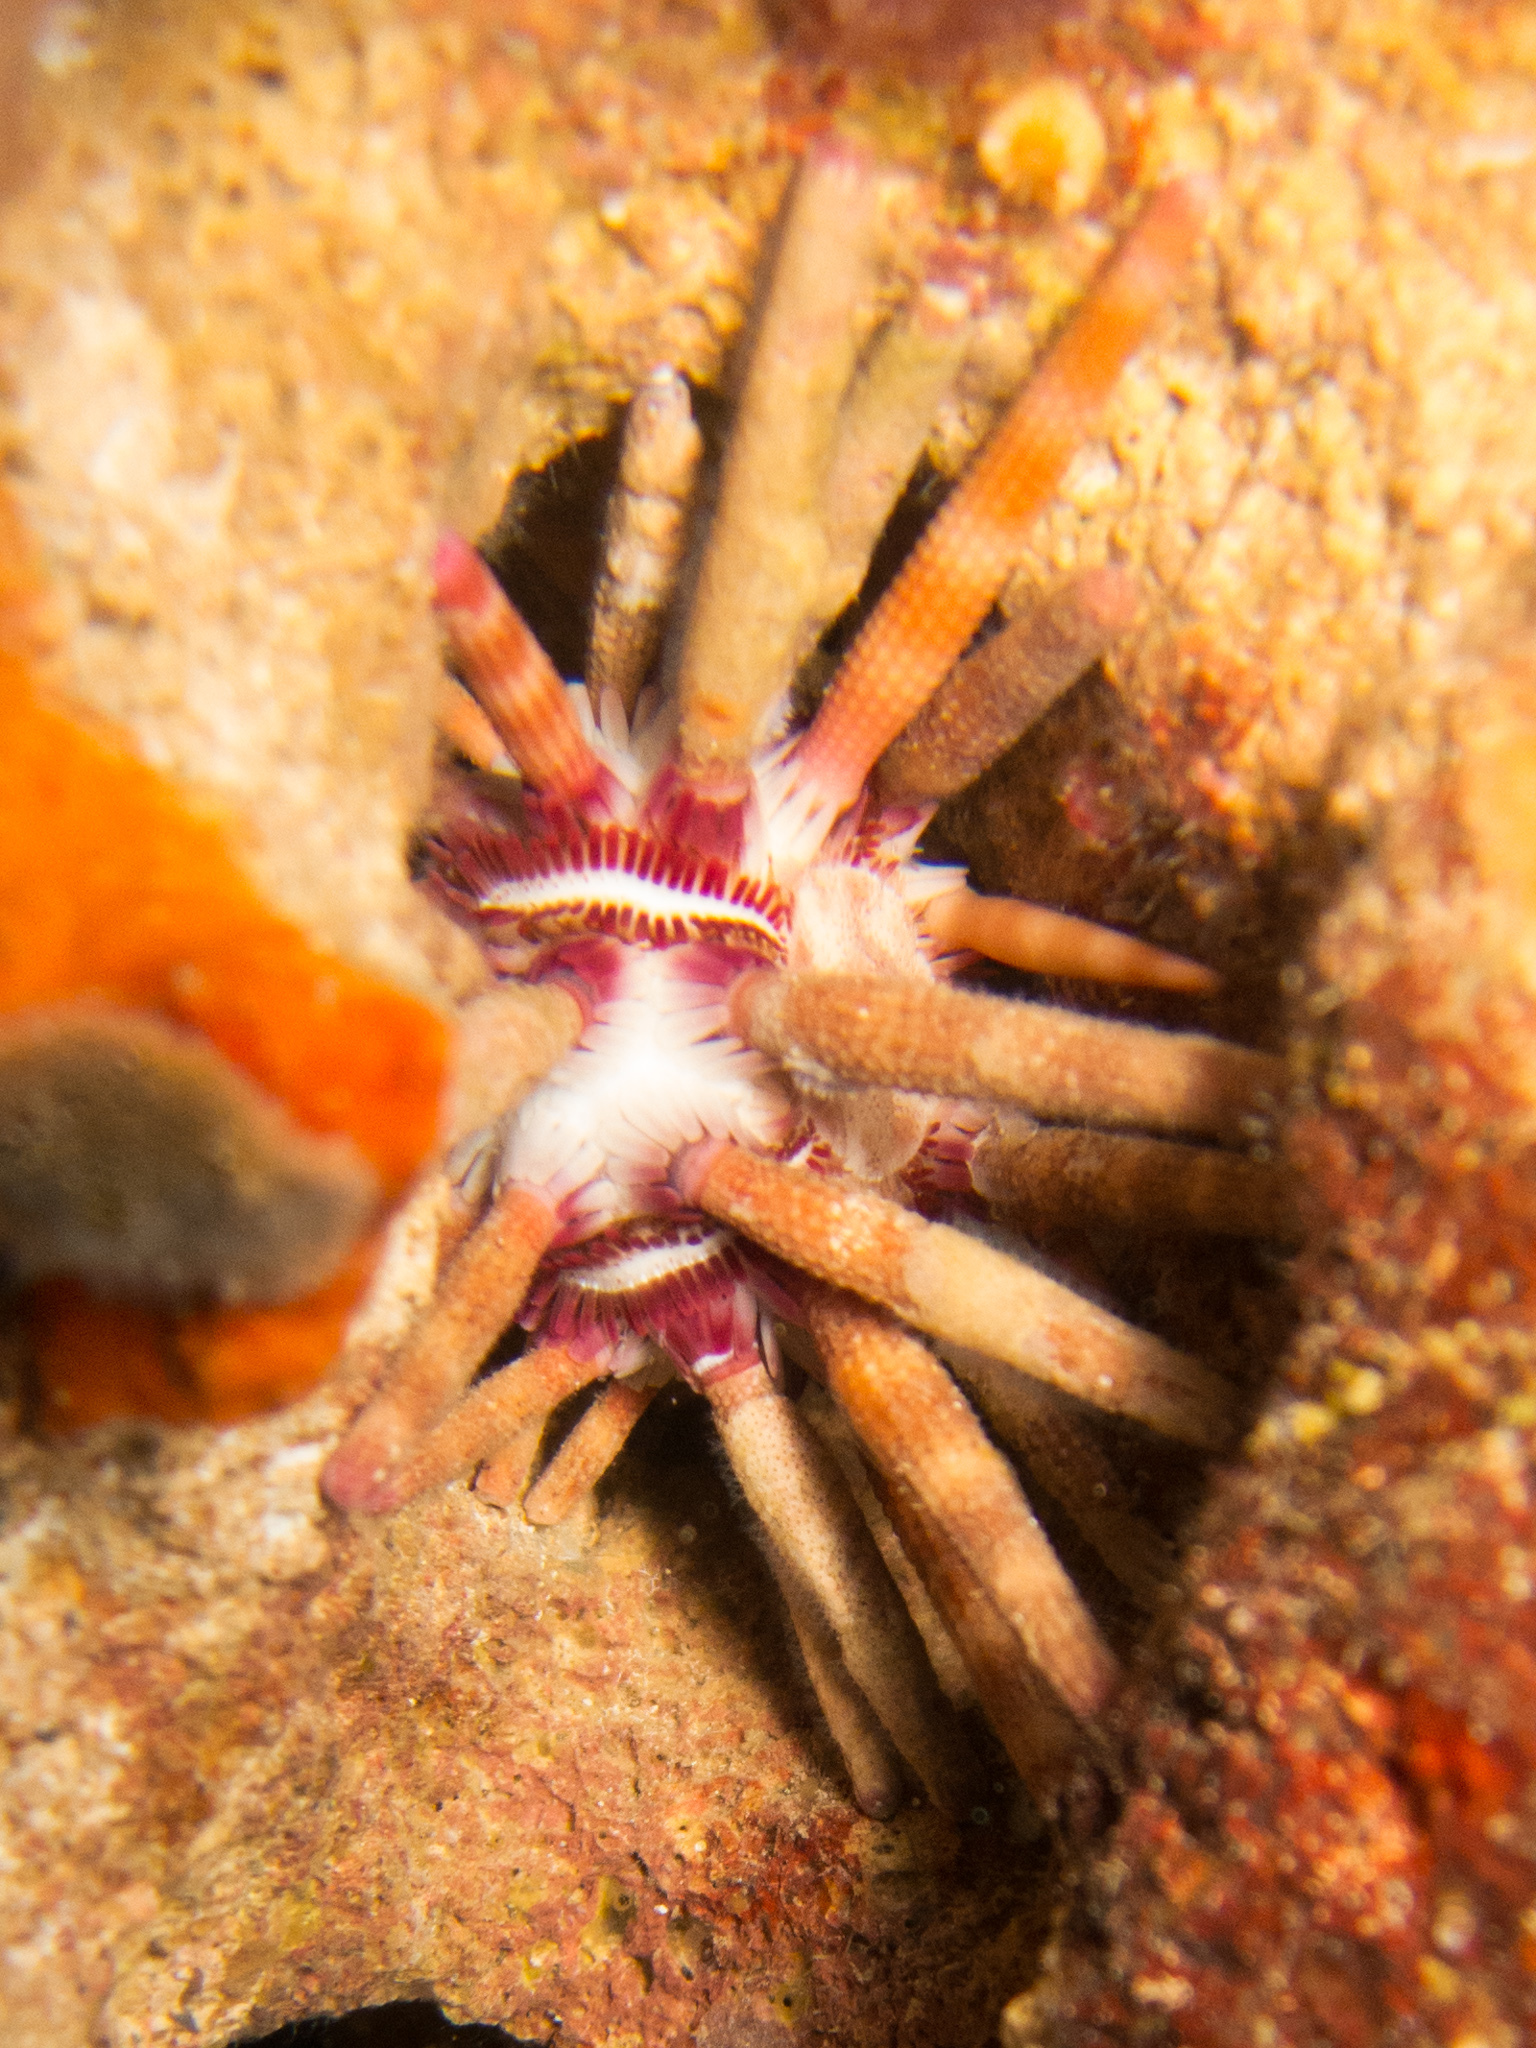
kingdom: Animalia
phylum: Echinodermata
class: Echinoidea
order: Cidaroida
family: Cidaridae
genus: Eucidaris
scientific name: Eucidaris metularia
